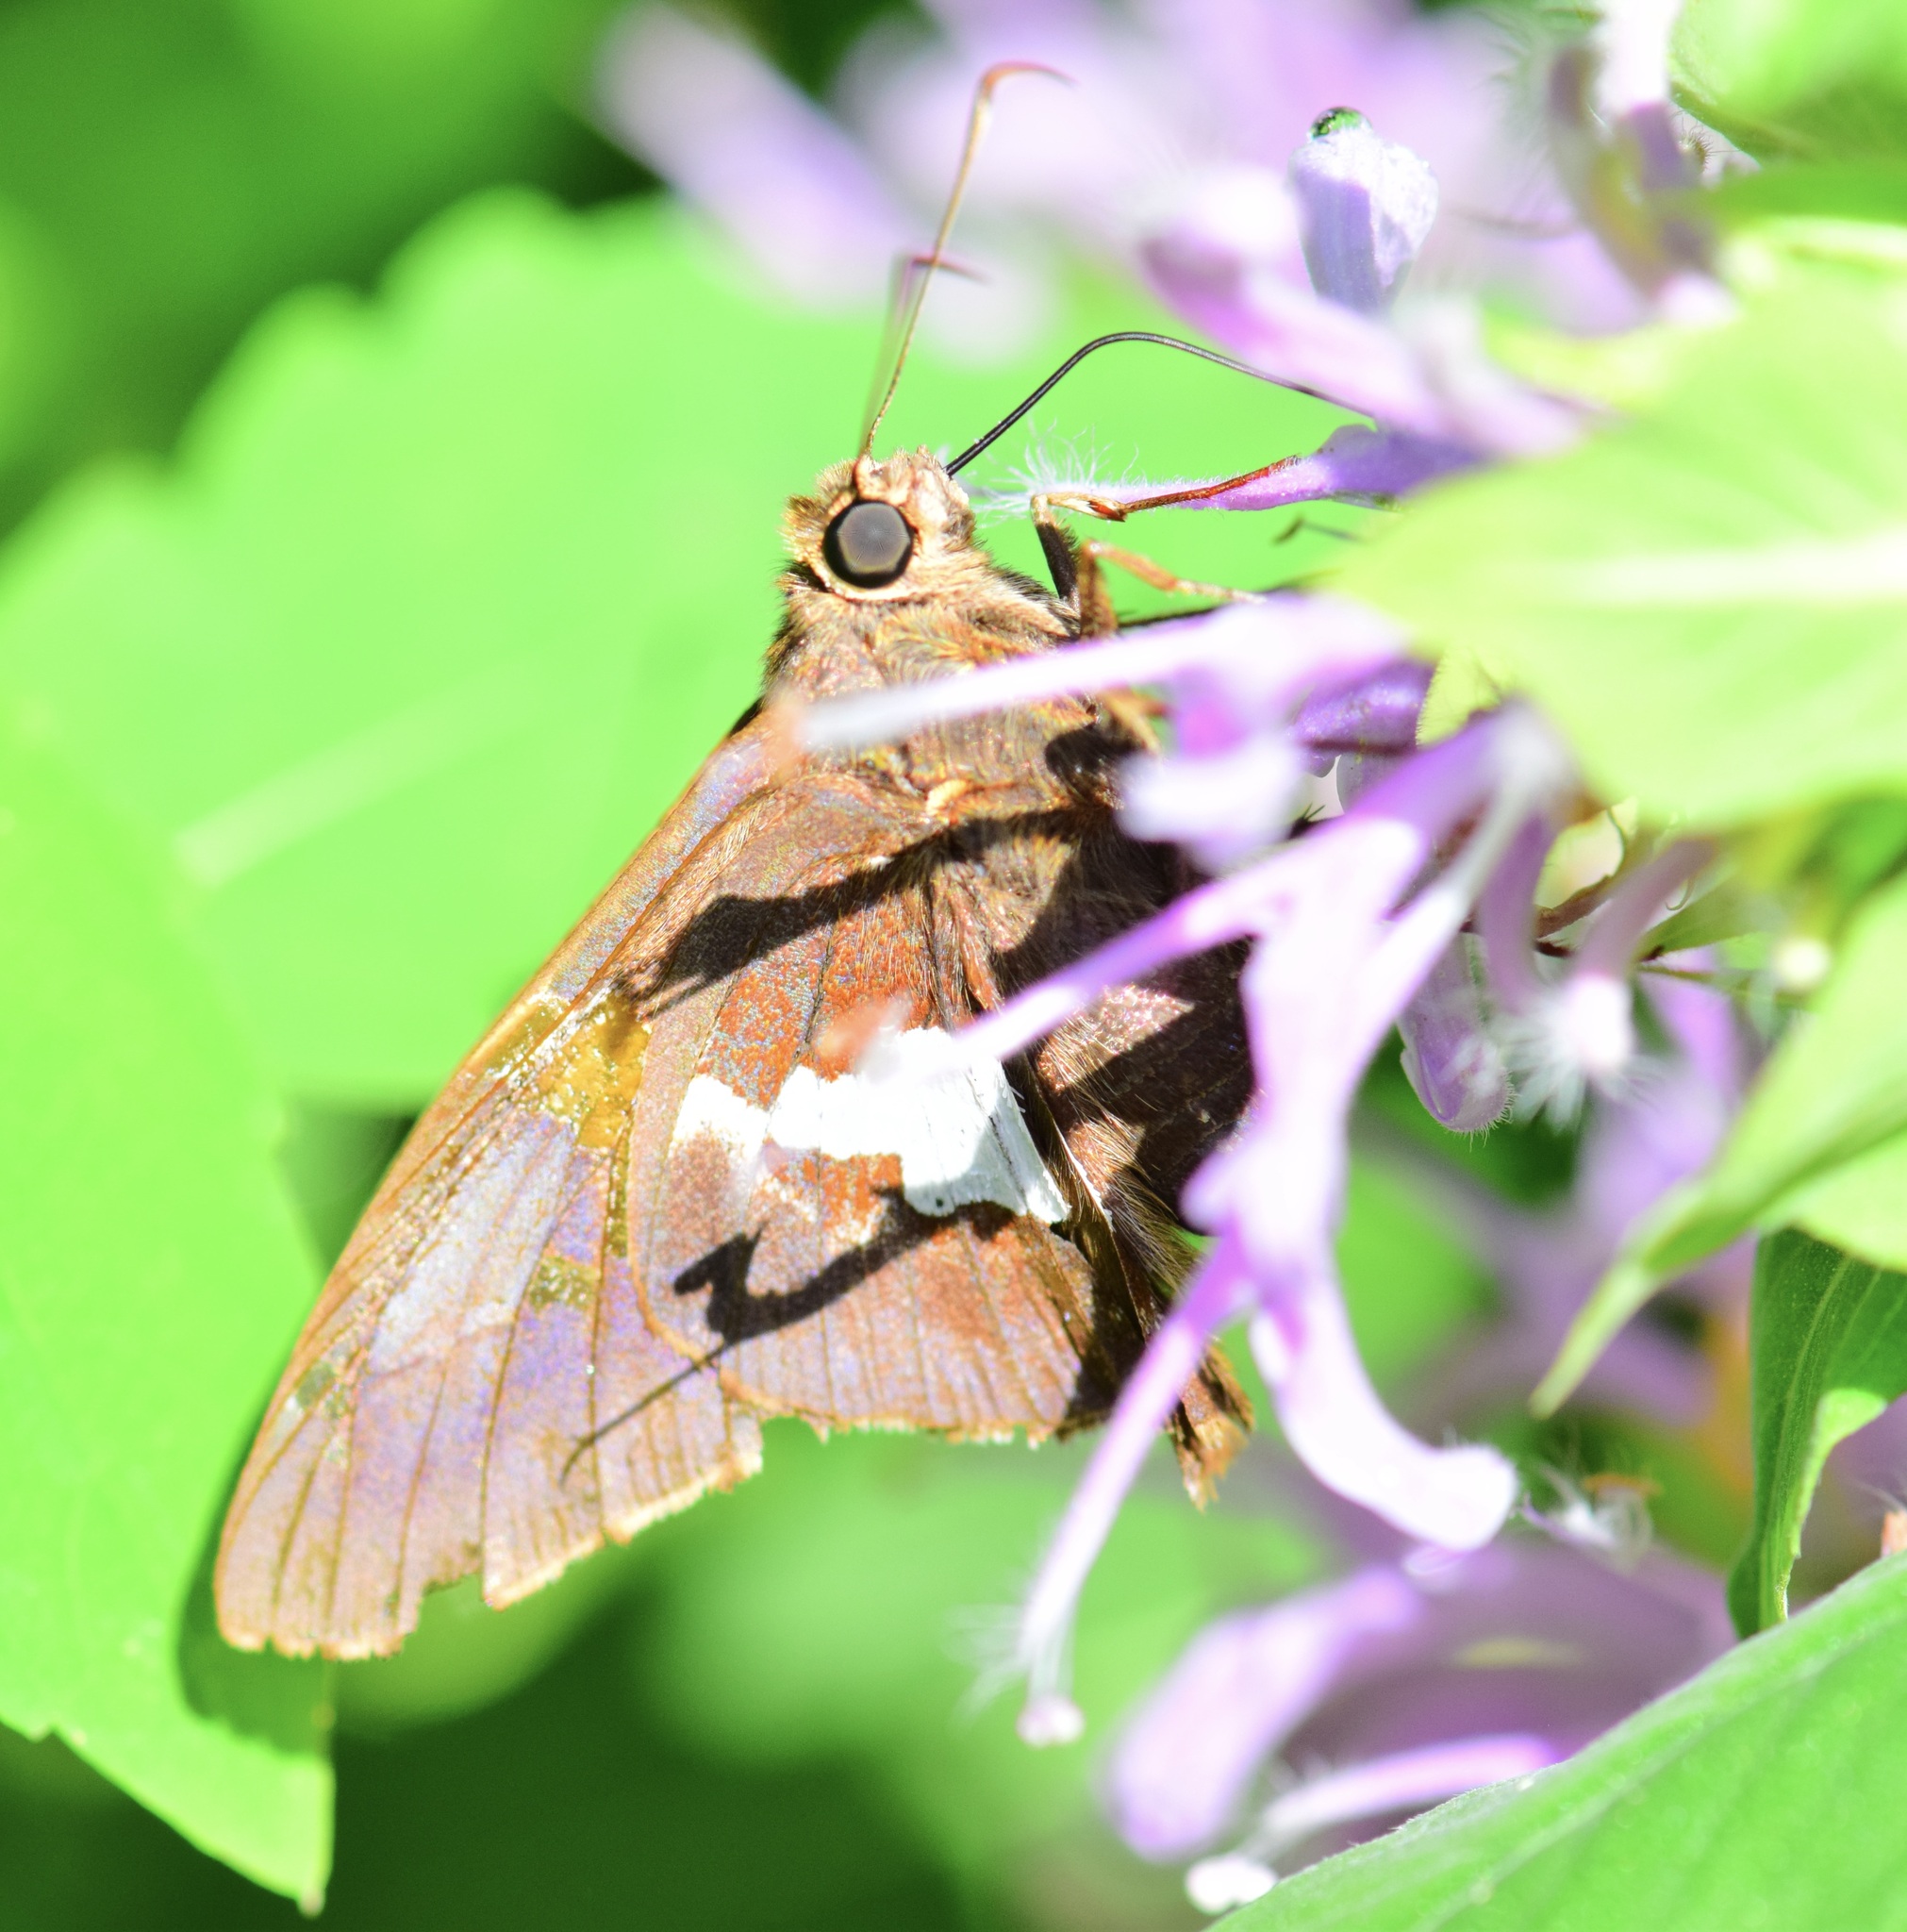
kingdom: Animalia
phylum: Arthropoda
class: Insecta
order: Lepidoptera
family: Hesperiidae
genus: Epargyreus
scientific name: Epargyreus clarus
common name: Silver-spotted skipper
